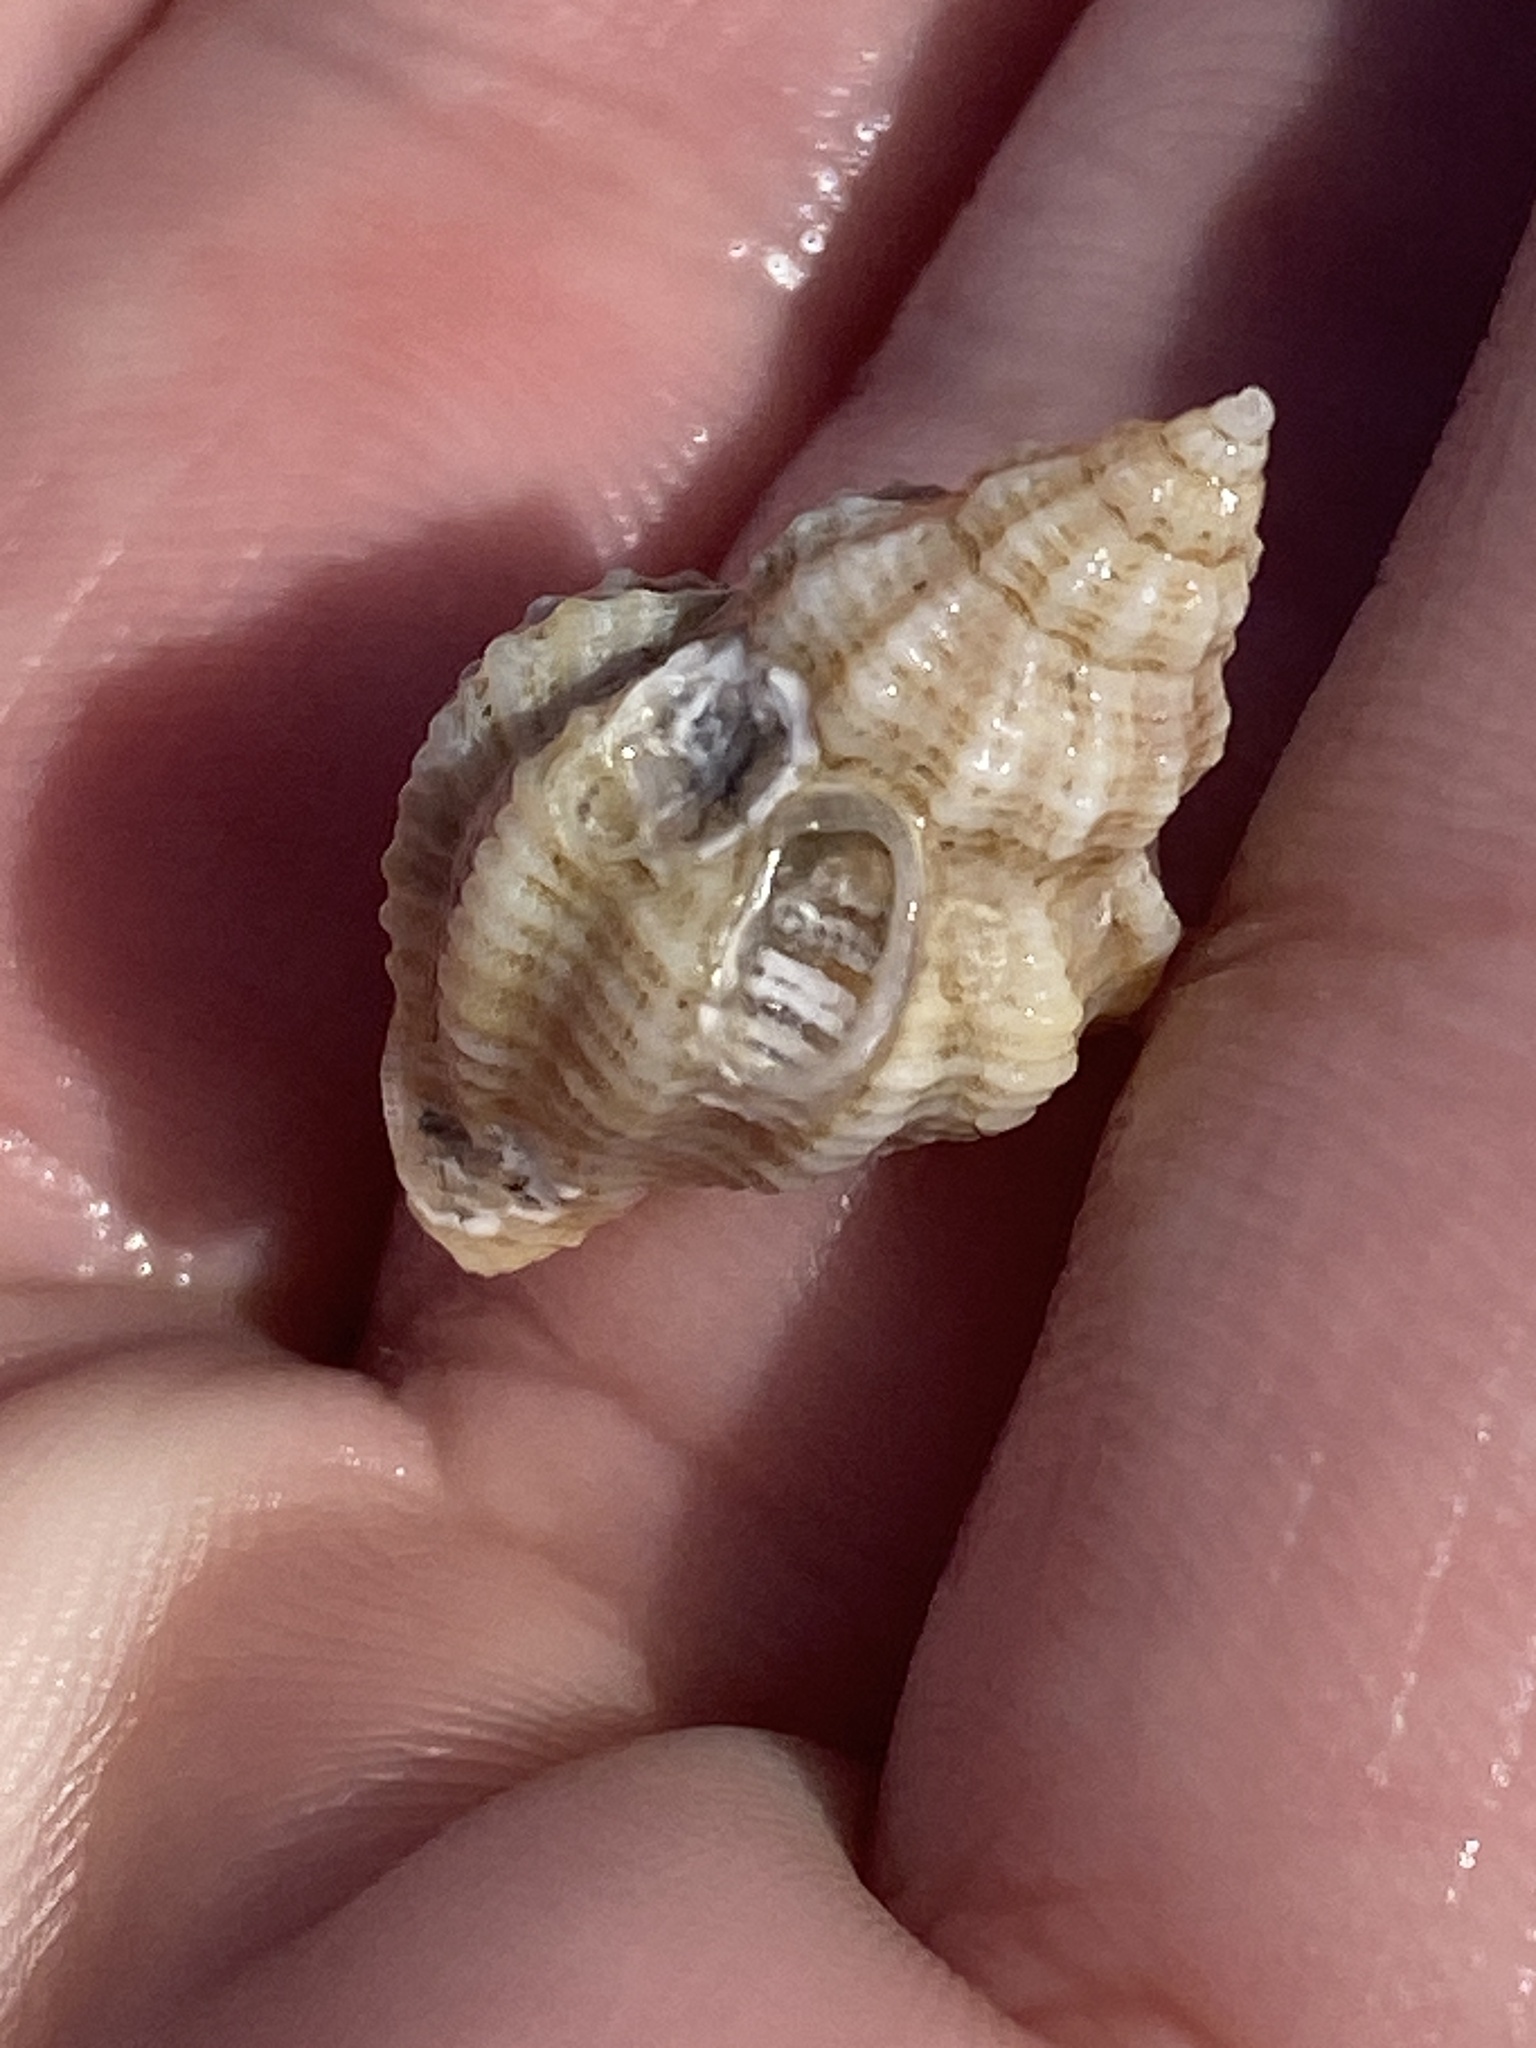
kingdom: Animalia
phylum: Mollusca
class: Gastropoda
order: Neogastropoda
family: Muricidae
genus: Urosalpinx
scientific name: Urosalpinx cinerea
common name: American sting winkle
